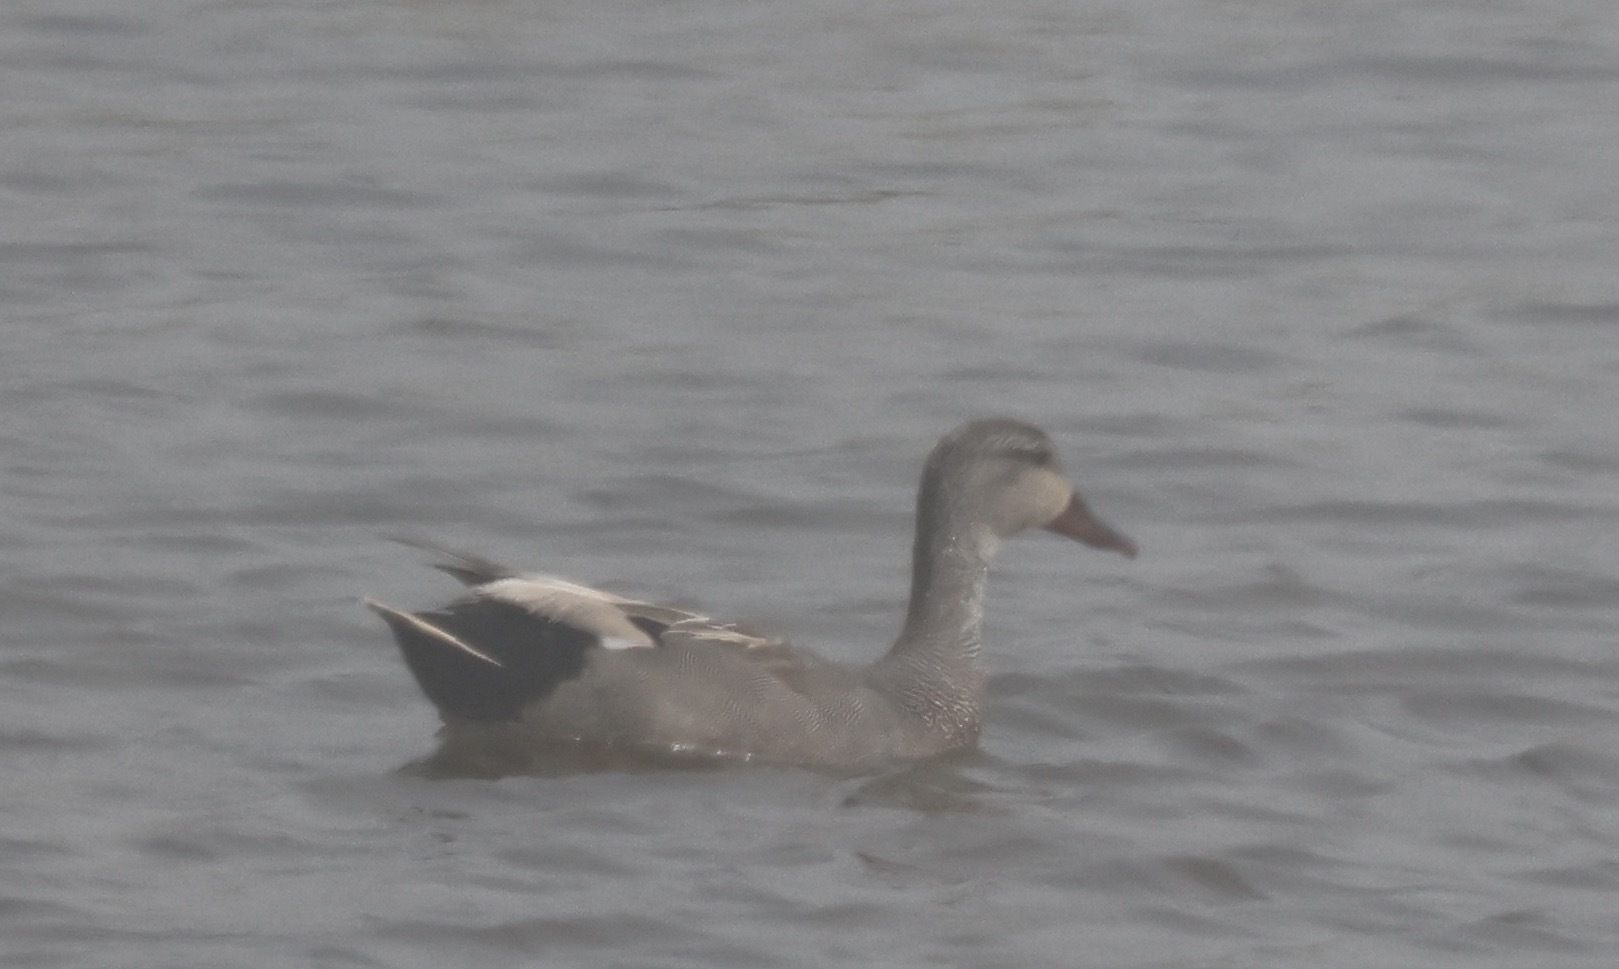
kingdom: Animalia
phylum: Chordata
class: Aves
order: Anseriformes
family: Anatidae
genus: Mareca
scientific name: Mareca strepera
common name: Gadwall
